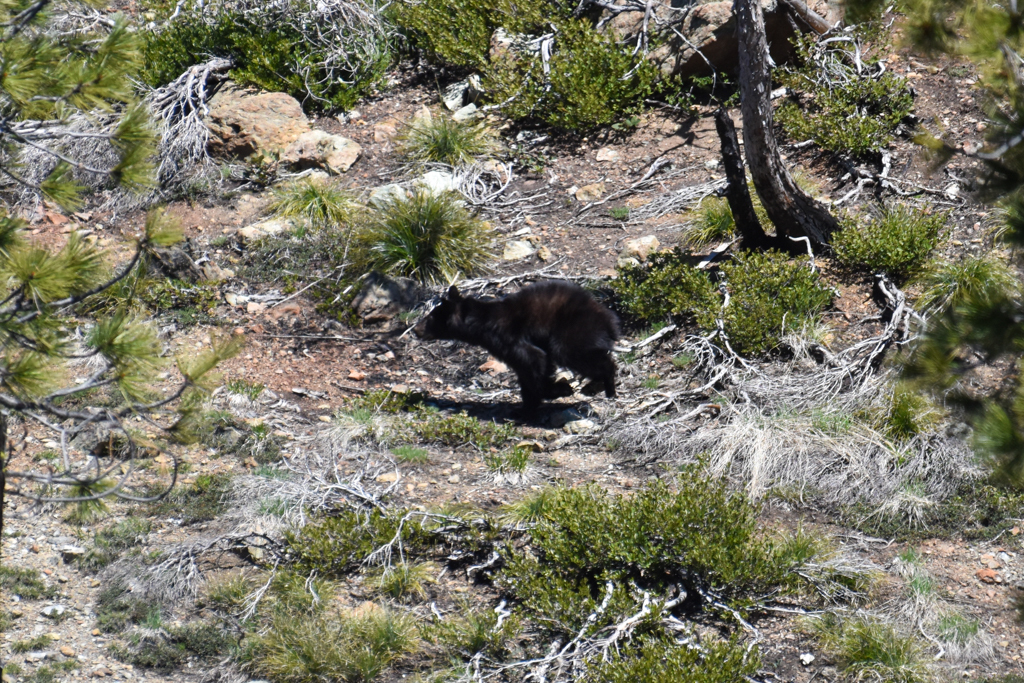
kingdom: Animalia
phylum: Chordata
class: Mammalia
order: Carnivora
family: Ursidae
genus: Ursus
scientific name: Ursus americanus
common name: American black bear
